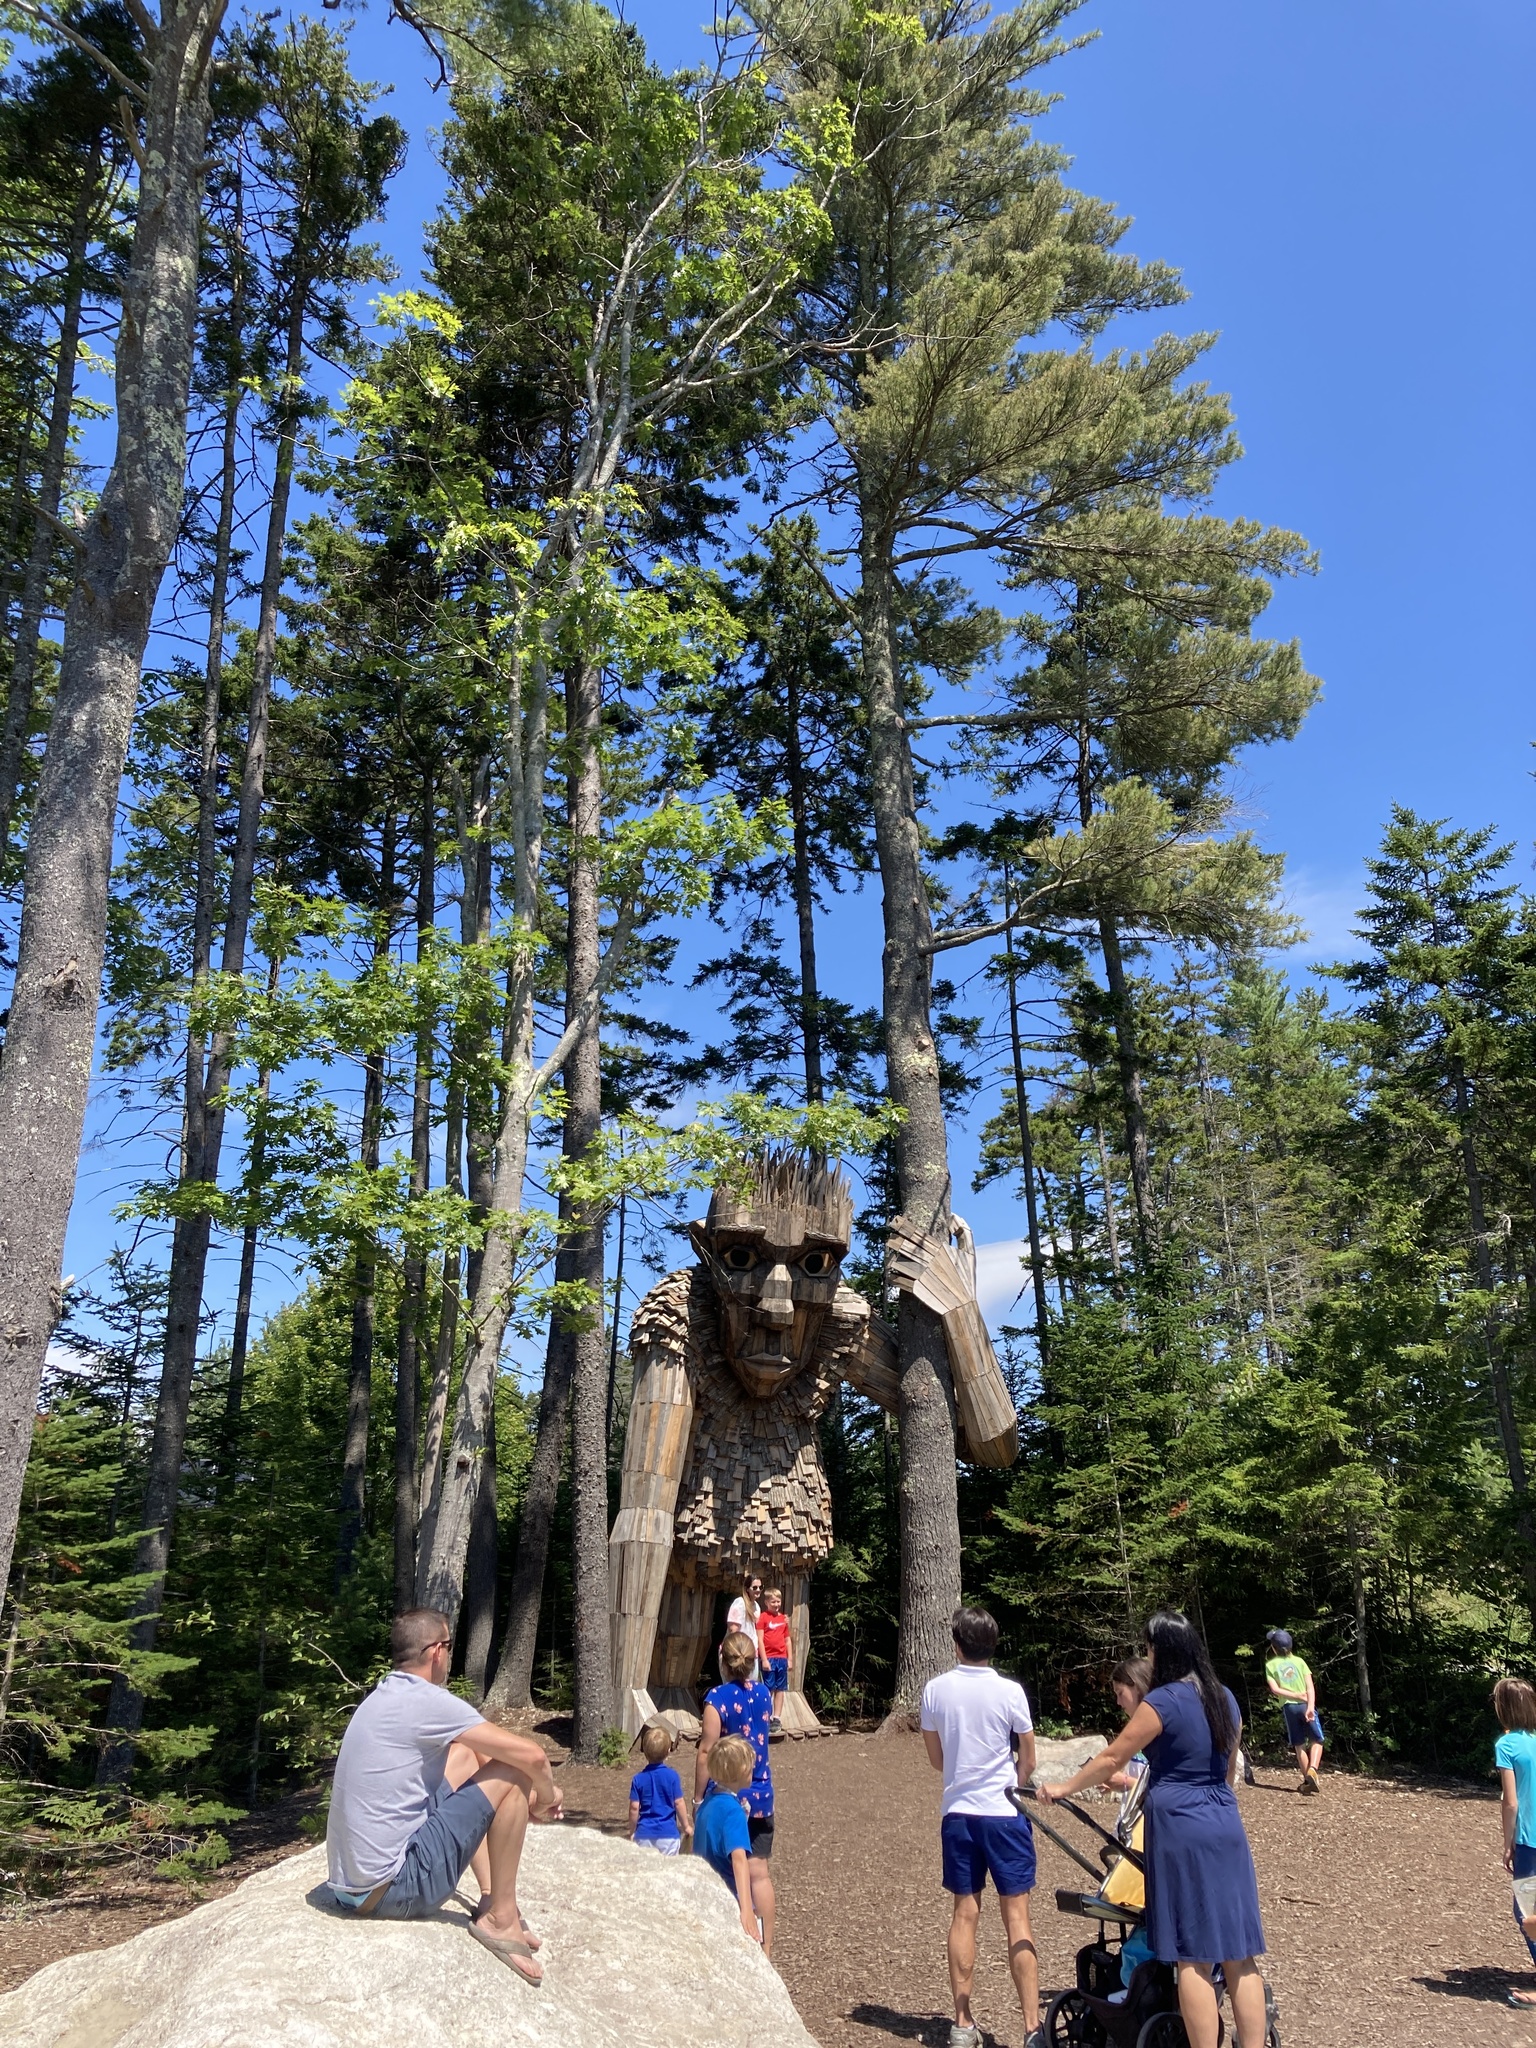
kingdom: Plantae
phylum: Tracheophyta
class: Pinopsida
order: Pinales
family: Pinaceae
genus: Pinus
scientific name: Pinus strobus
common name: Weymouth pine
